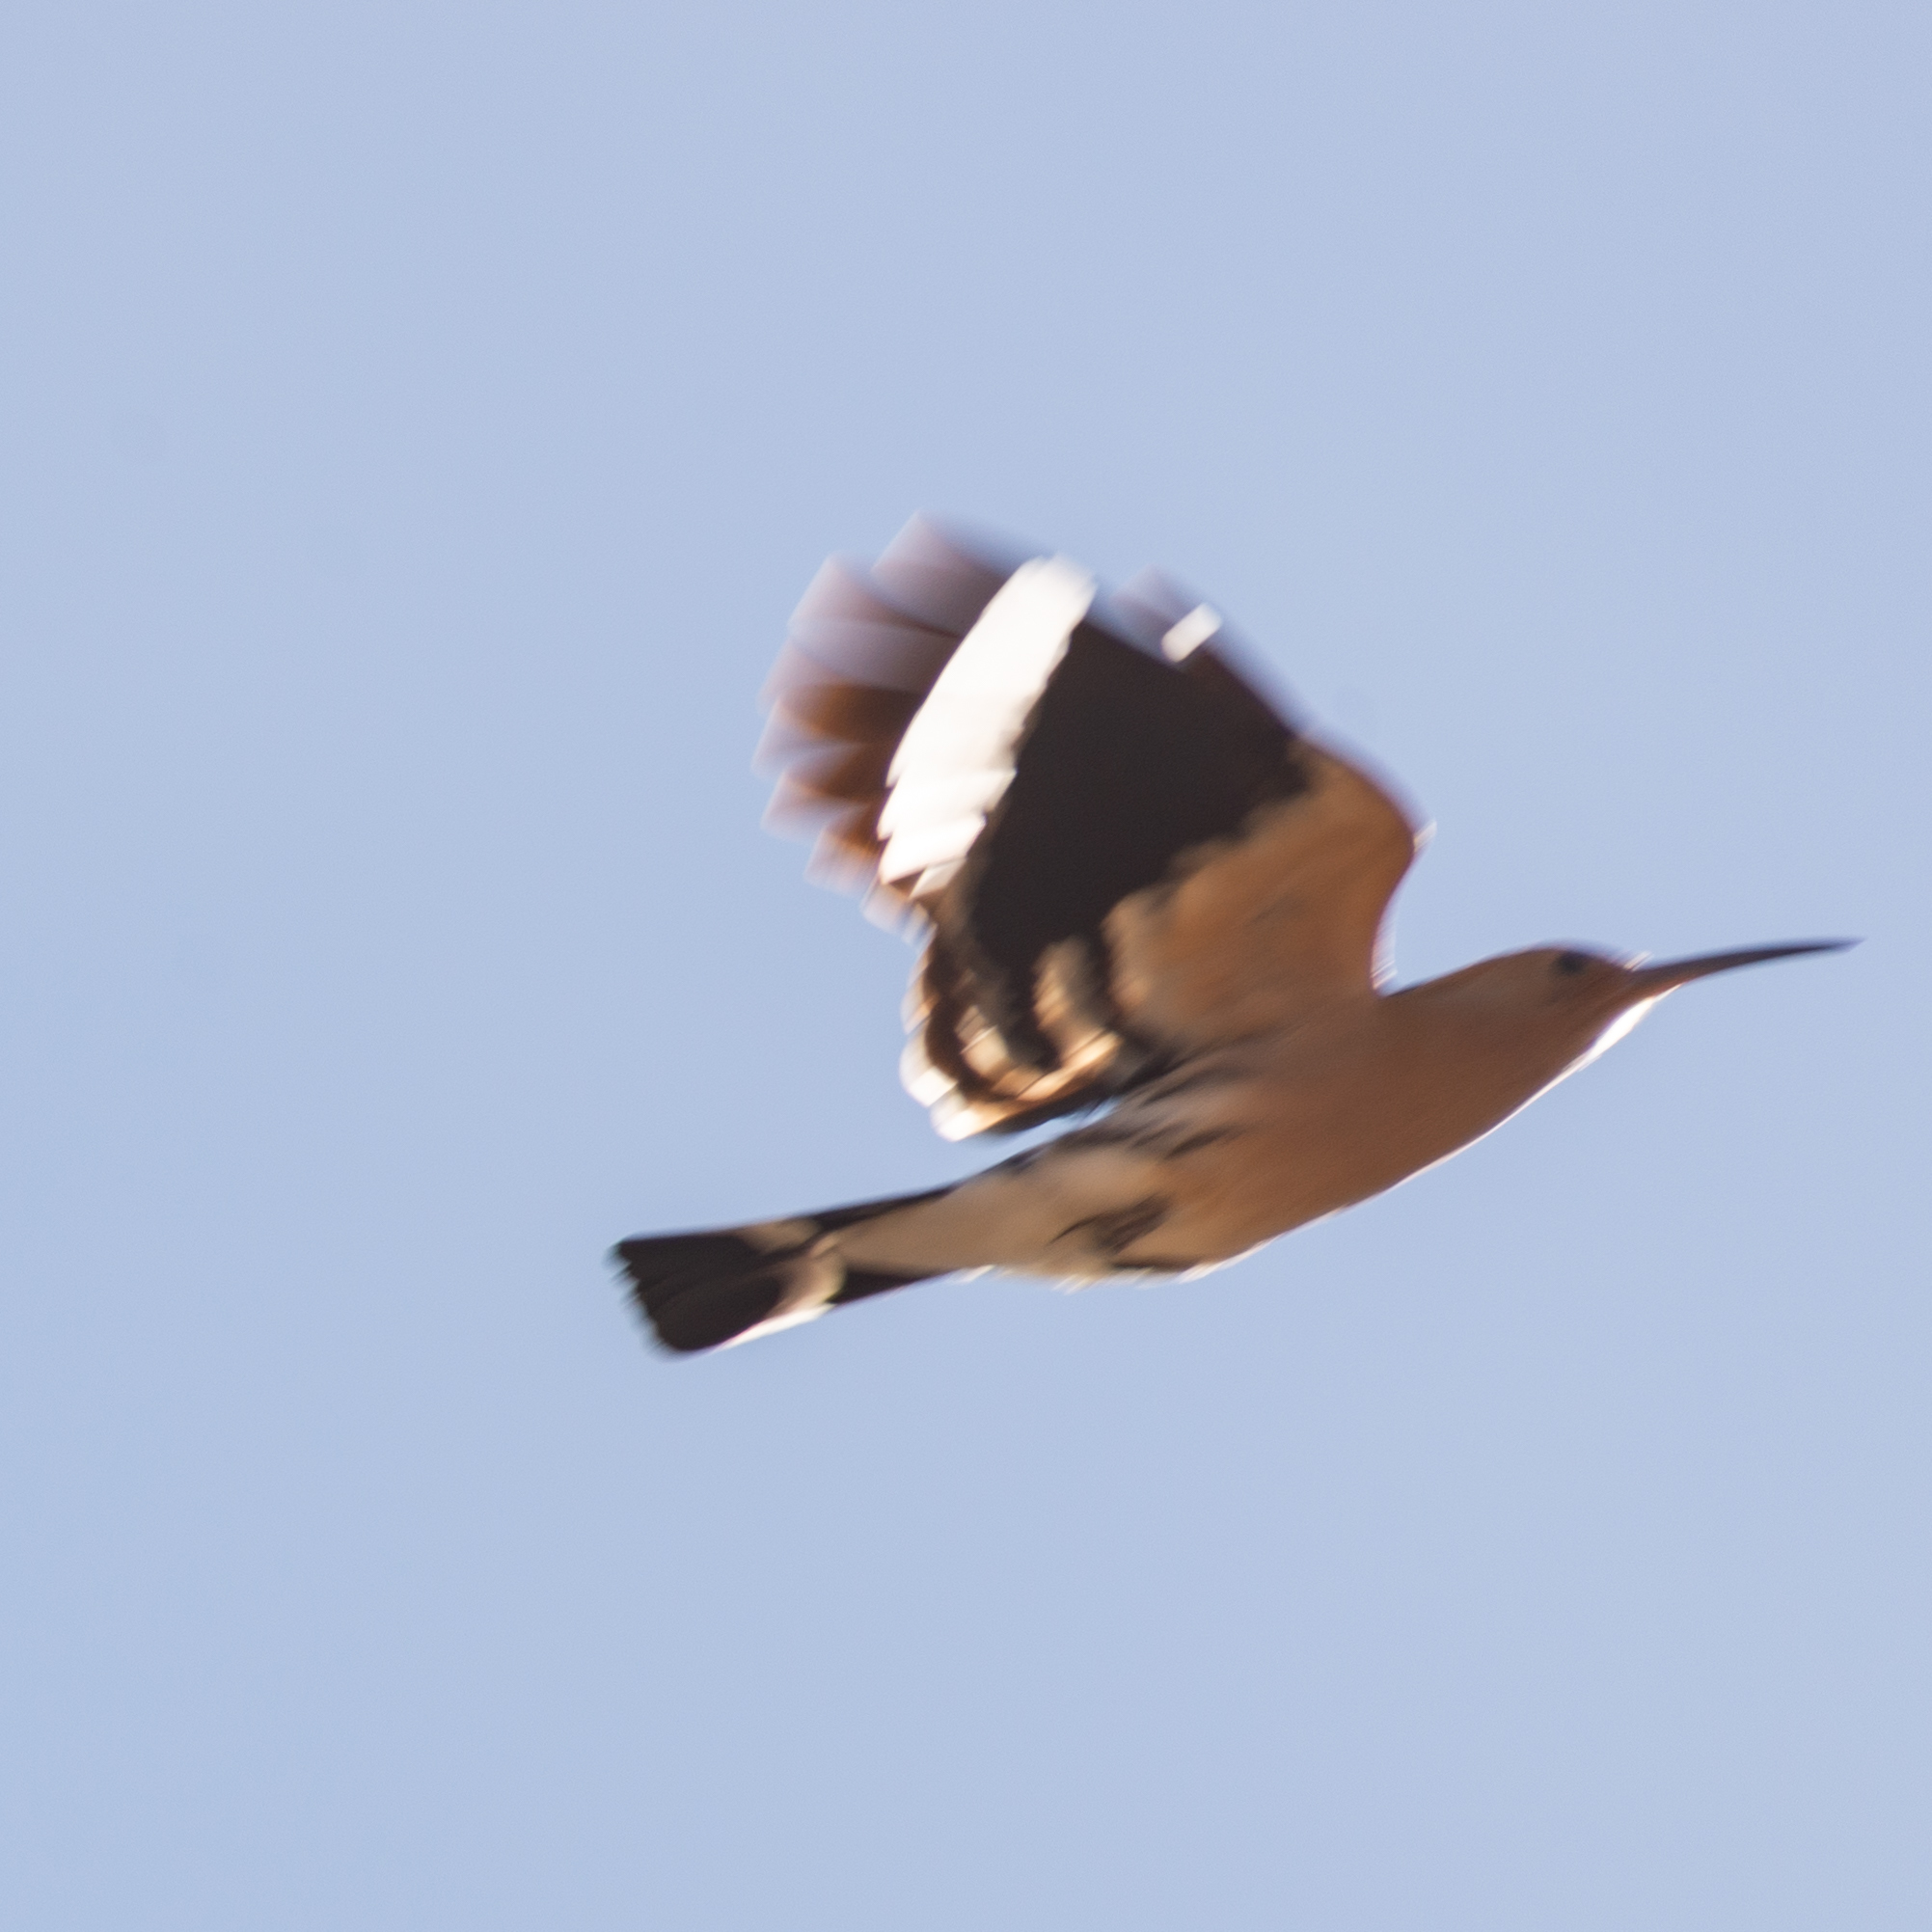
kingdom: Animalia
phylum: Chordata
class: Aves
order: Bucerotiformes
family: Upupidae
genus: Upupa
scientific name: Upupa epops
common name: Eurasian hoopoe
